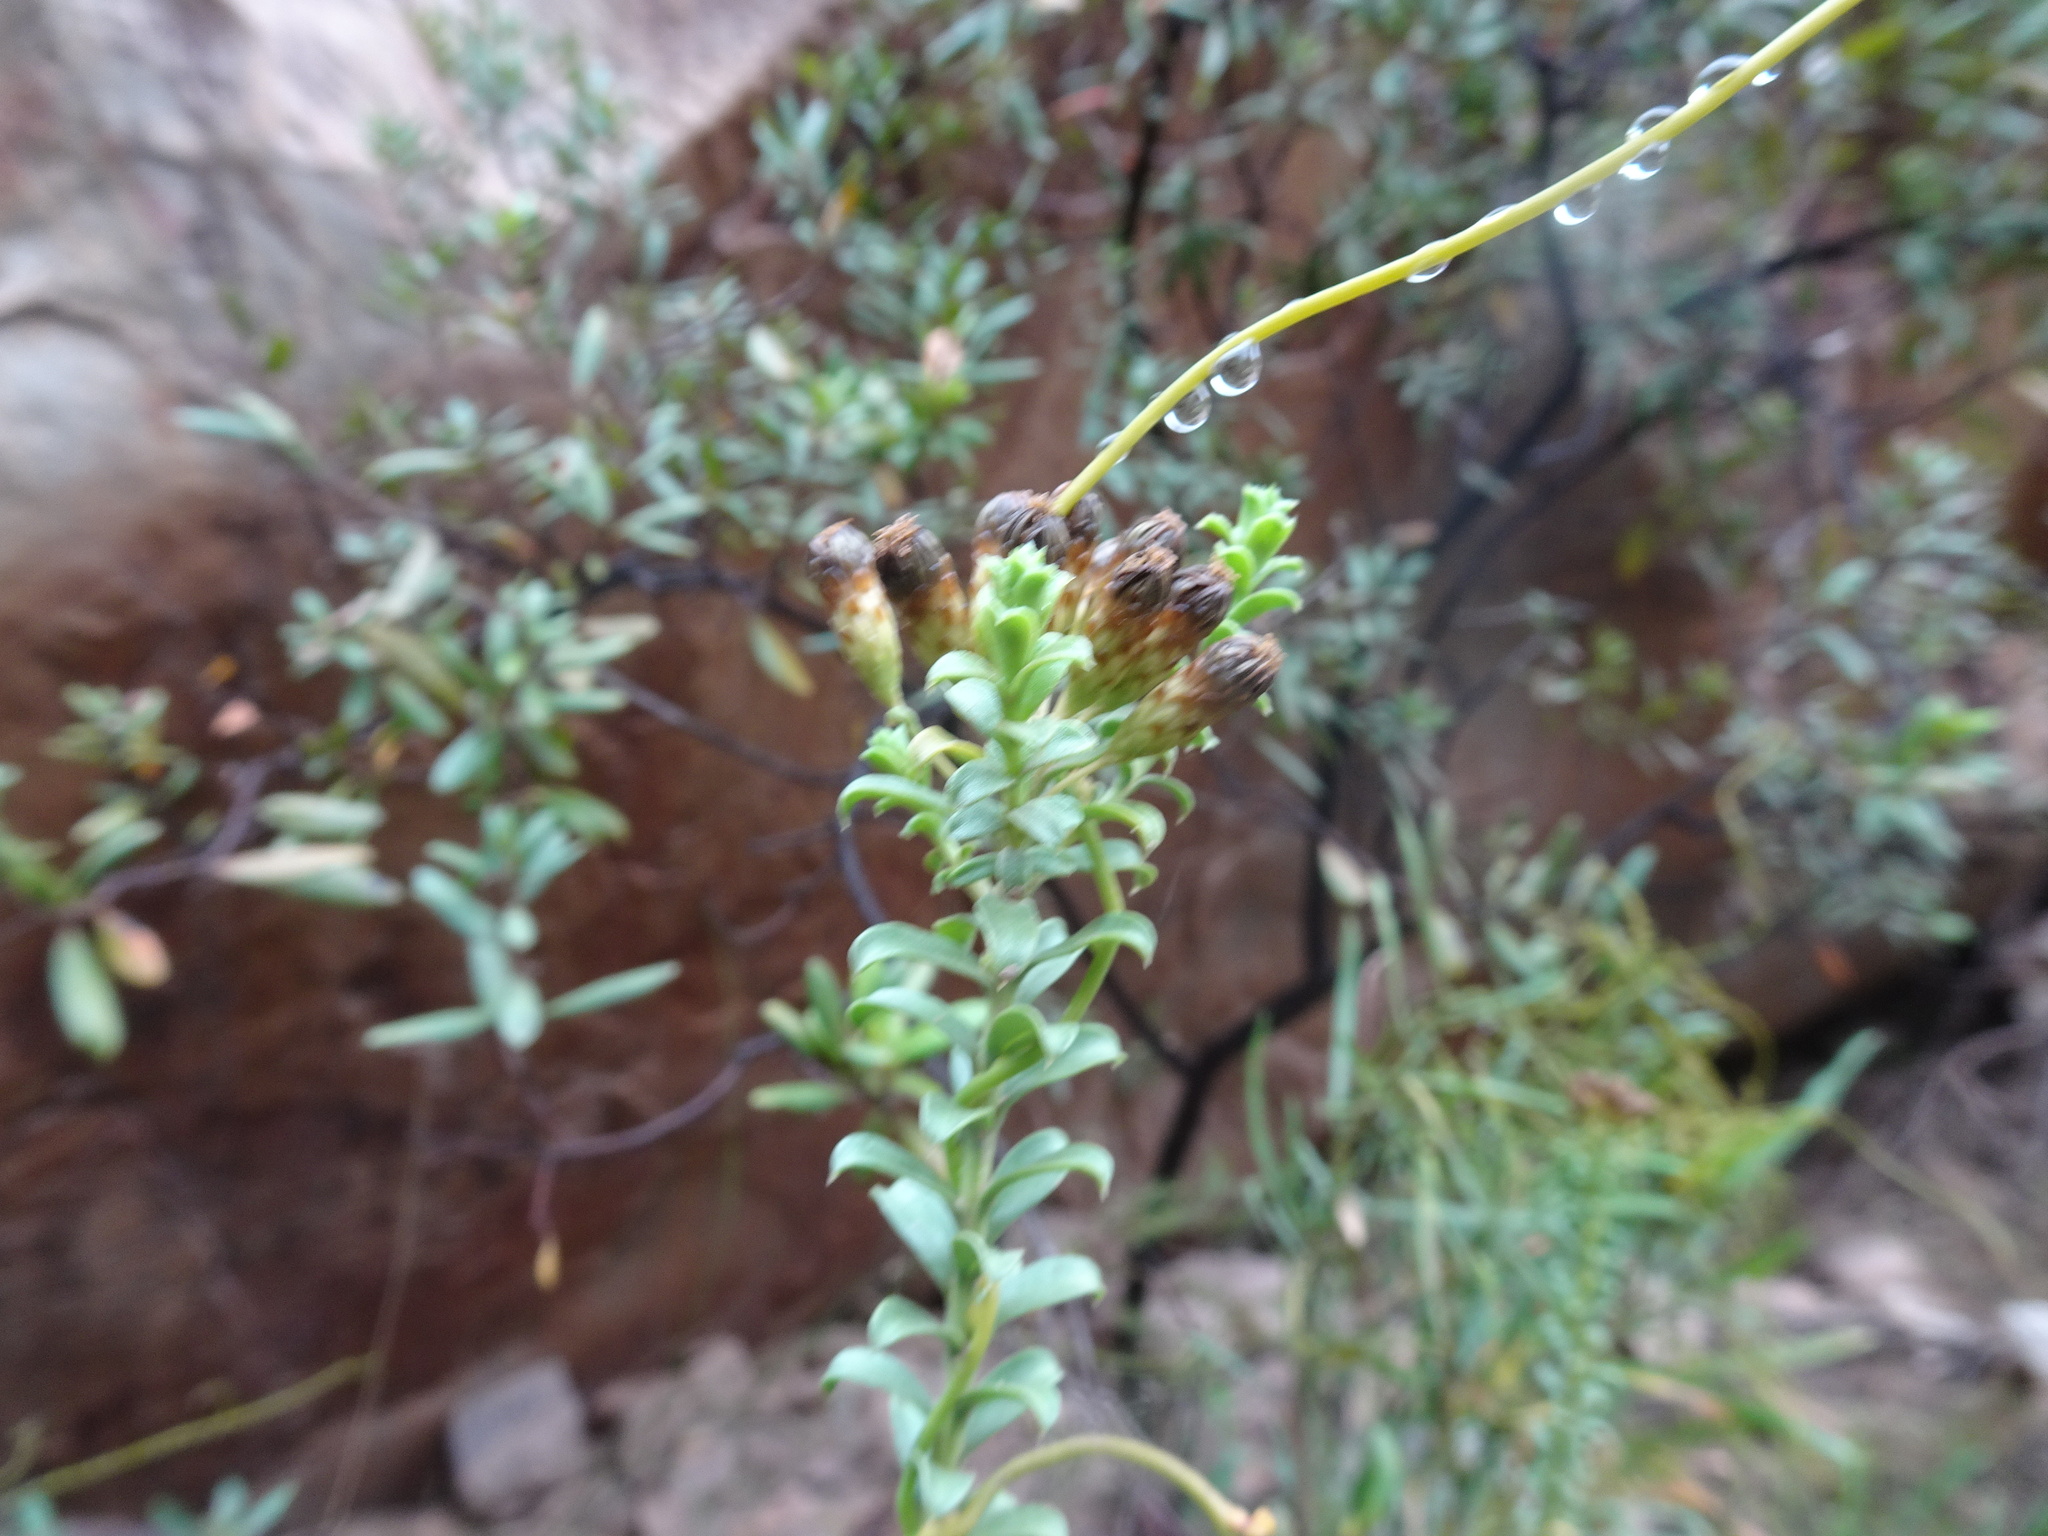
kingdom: Plantae
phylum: Tracheophyta
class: Magnoliopsida
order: Asterales
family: Asteraceae
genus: Oedera
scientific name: Oedera squarrosa
